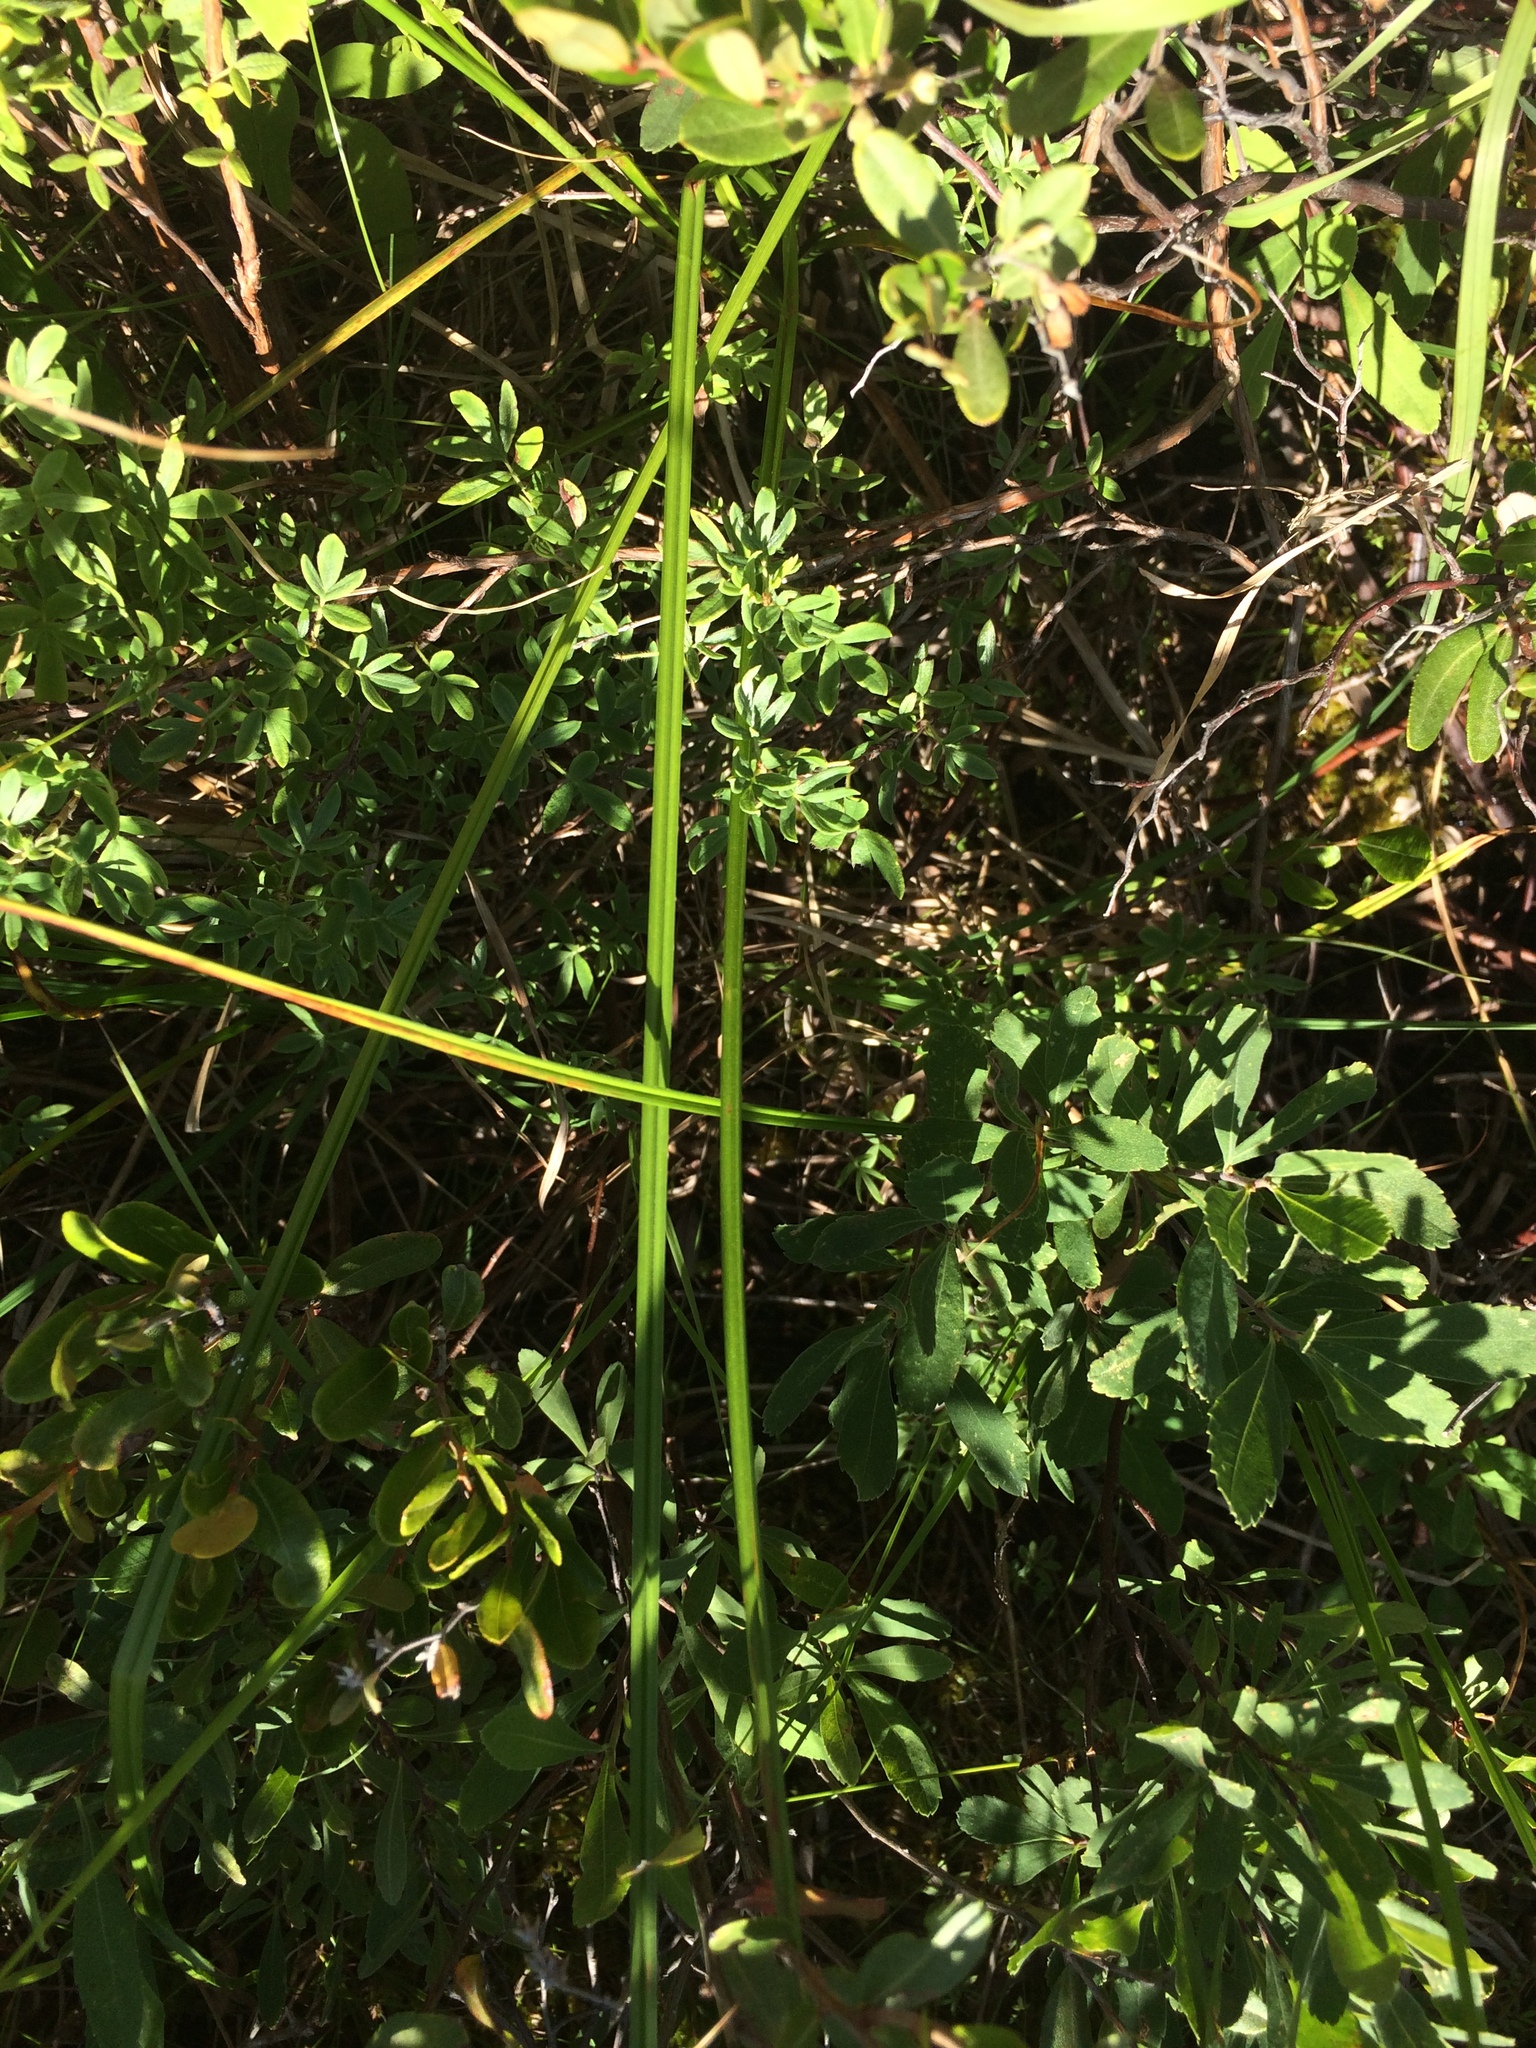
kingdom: Plantae
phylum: Tracheophyta
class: Liliopsida
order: Poales
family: Cyperaceae
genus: Carex
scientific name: Carex rostrata
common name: Bottle sedge
